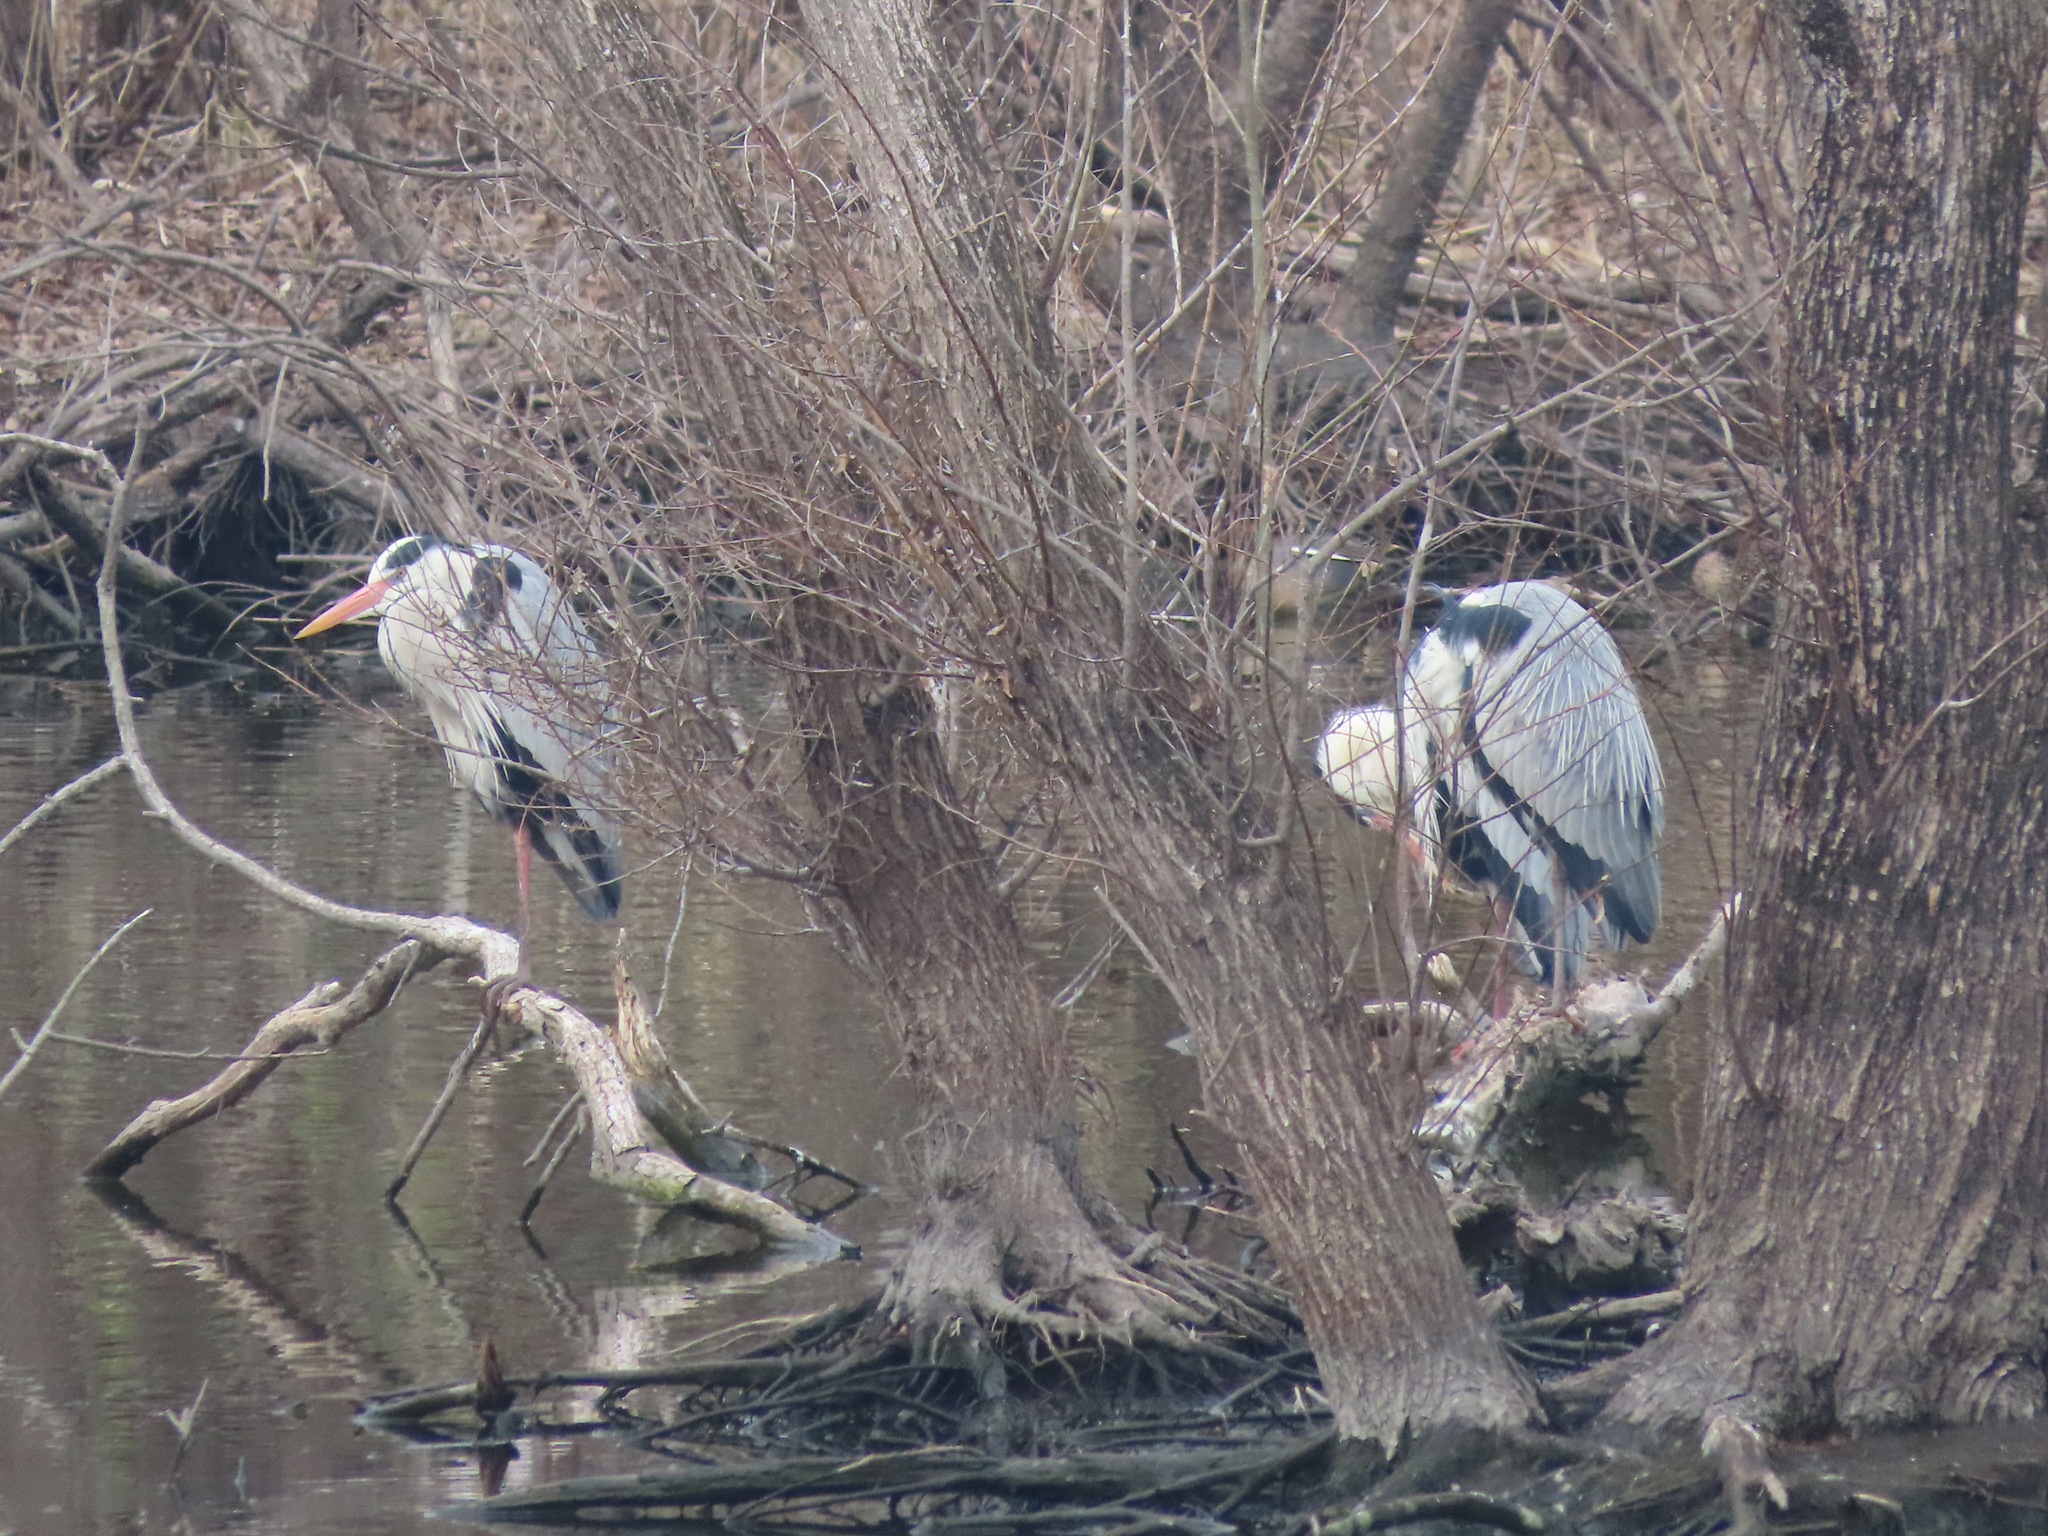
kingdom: Animalia
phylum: Chordata
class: Aves
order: Pelecaniformes
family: Ardeidae
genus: Ardea
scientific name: Ardea cinerea
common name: Grey heron
